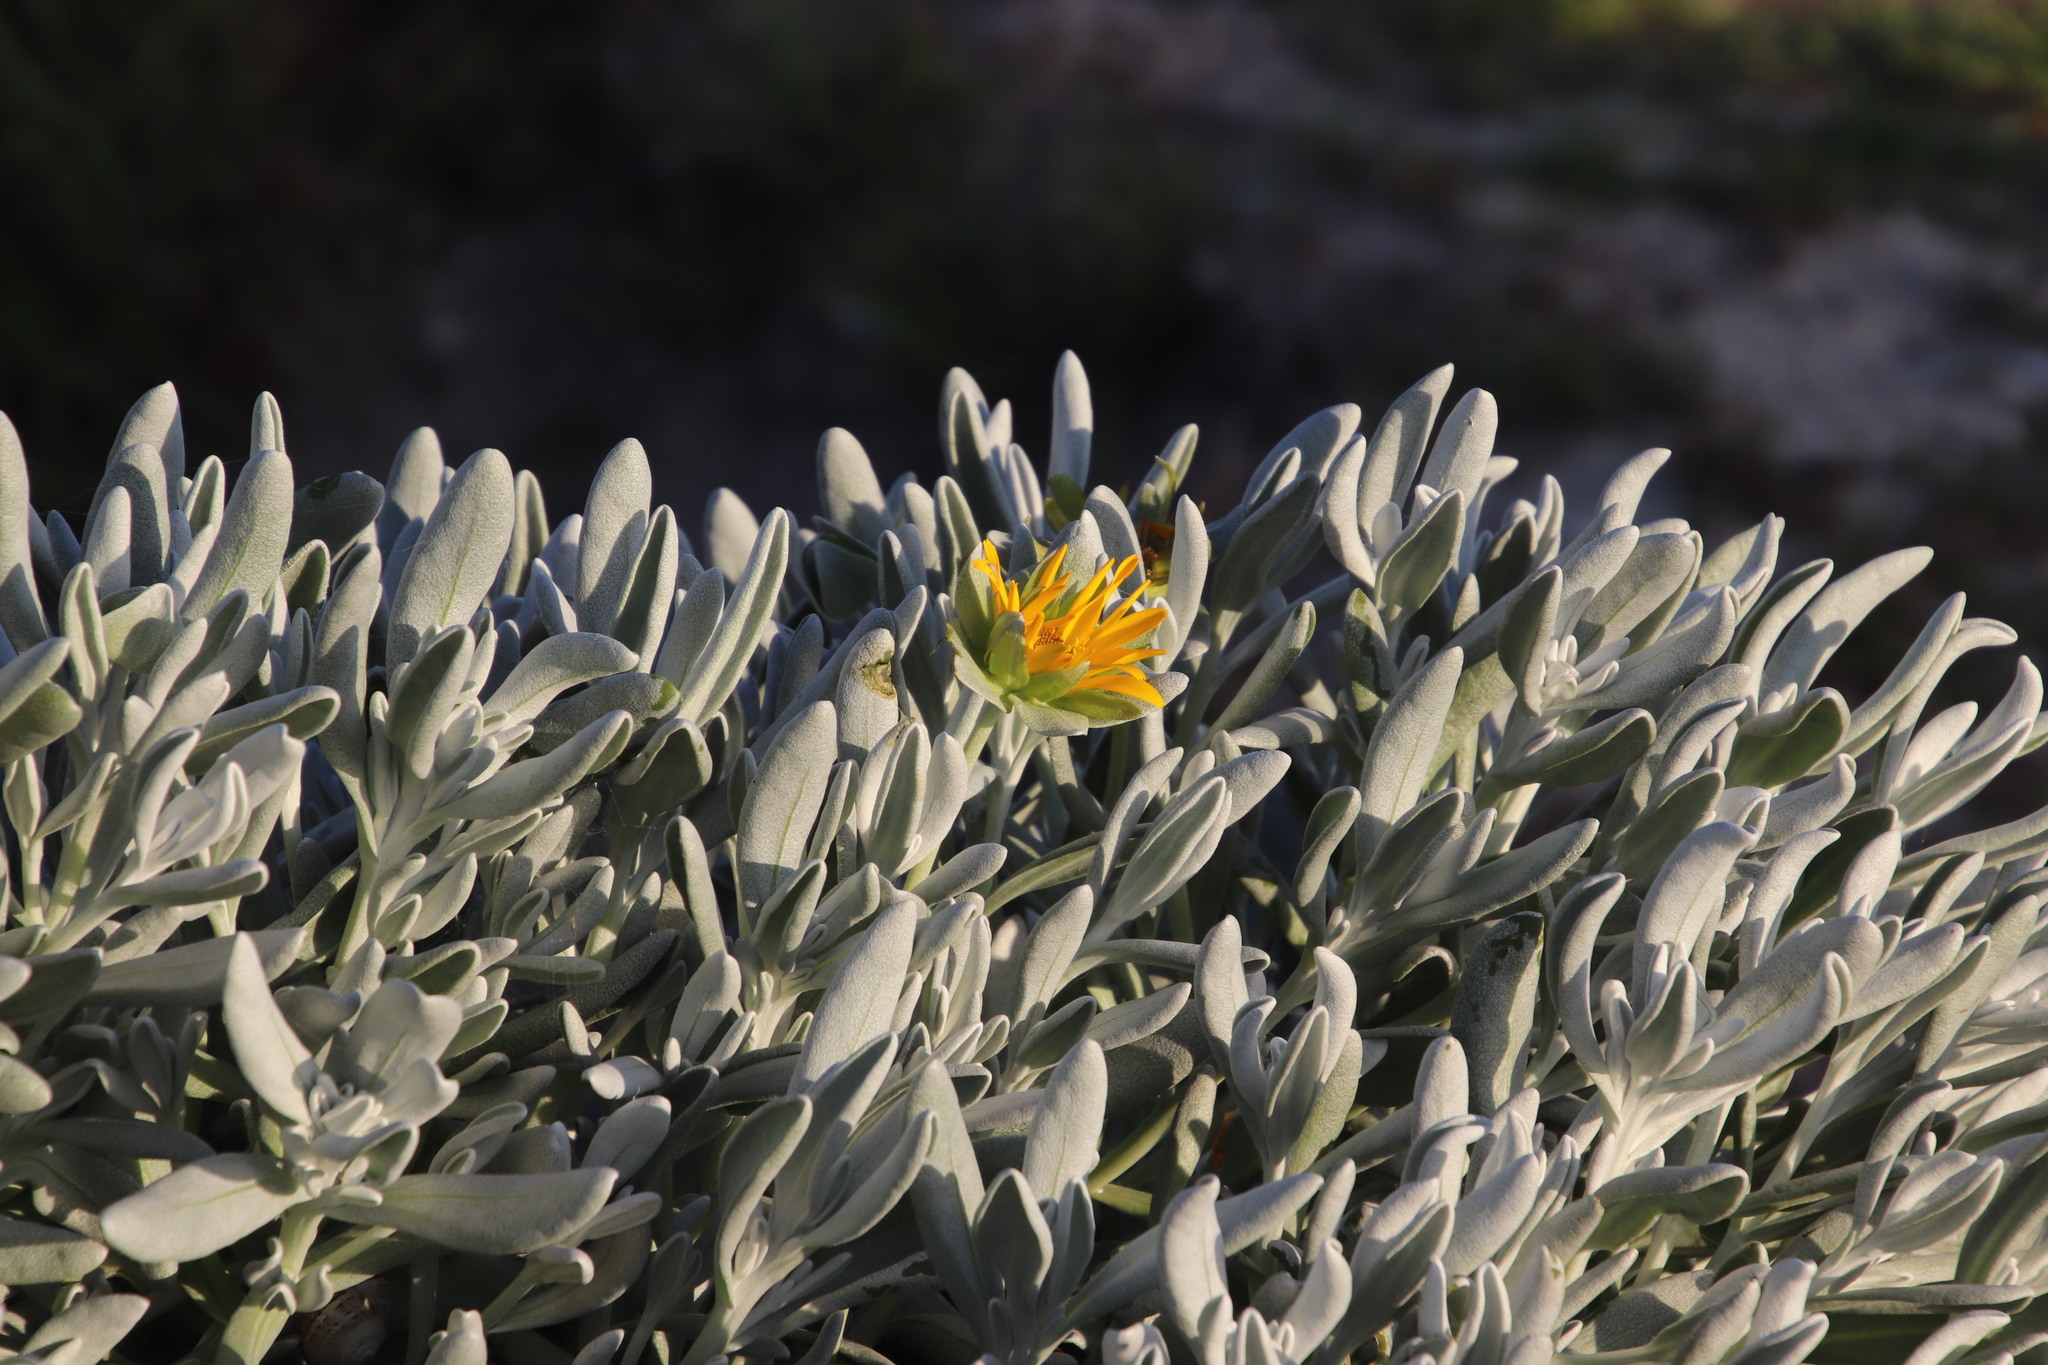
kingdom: Plantae
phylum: Tracheophyta
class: Magnoliopsida
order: Asterales
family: Asteraceae
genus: Didelta
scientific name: Didelta carnosa
